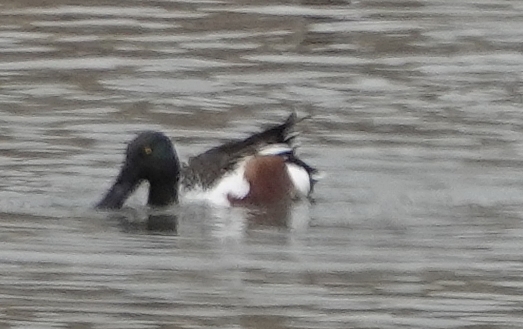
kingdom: Animalia
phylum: Chordata
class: Aves
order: Anseriformes
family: Anatidae
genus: Spatula
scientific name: Spatula clypeata
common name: Northern shoveler
